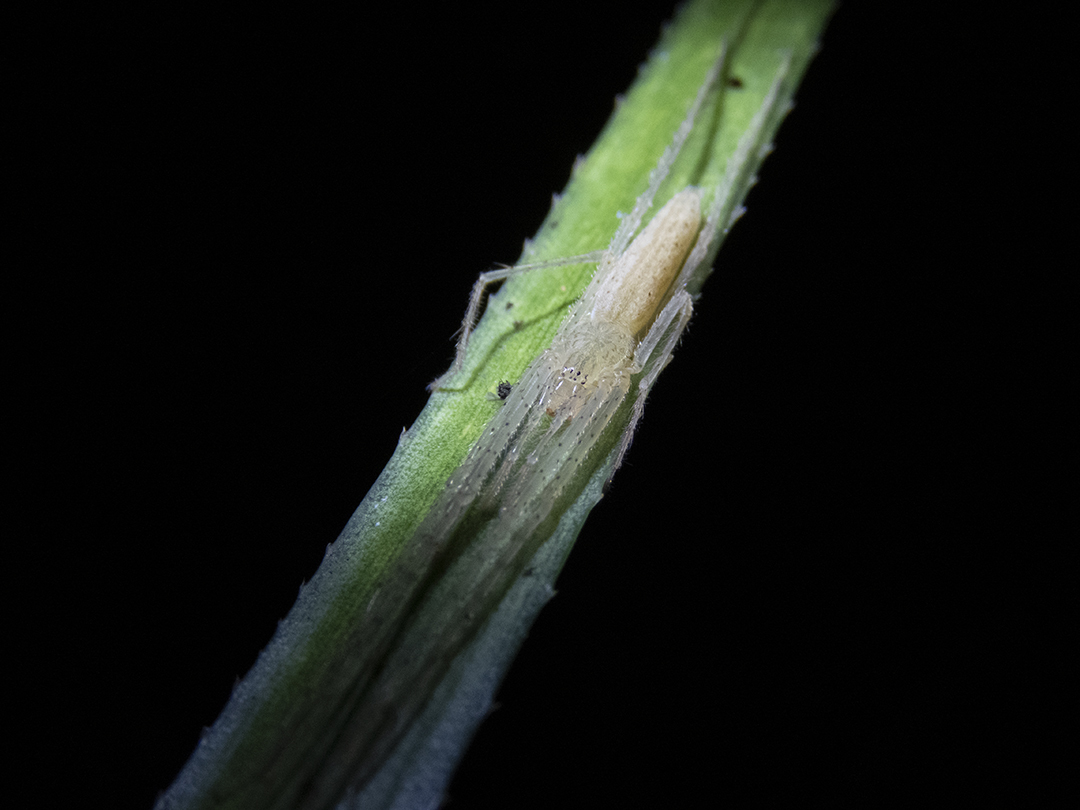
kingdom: Animalia
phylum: Arthropoda
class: Arachnida
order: Araneae
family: Desidae
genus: Ischalea
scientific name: Ischalea spinipes
